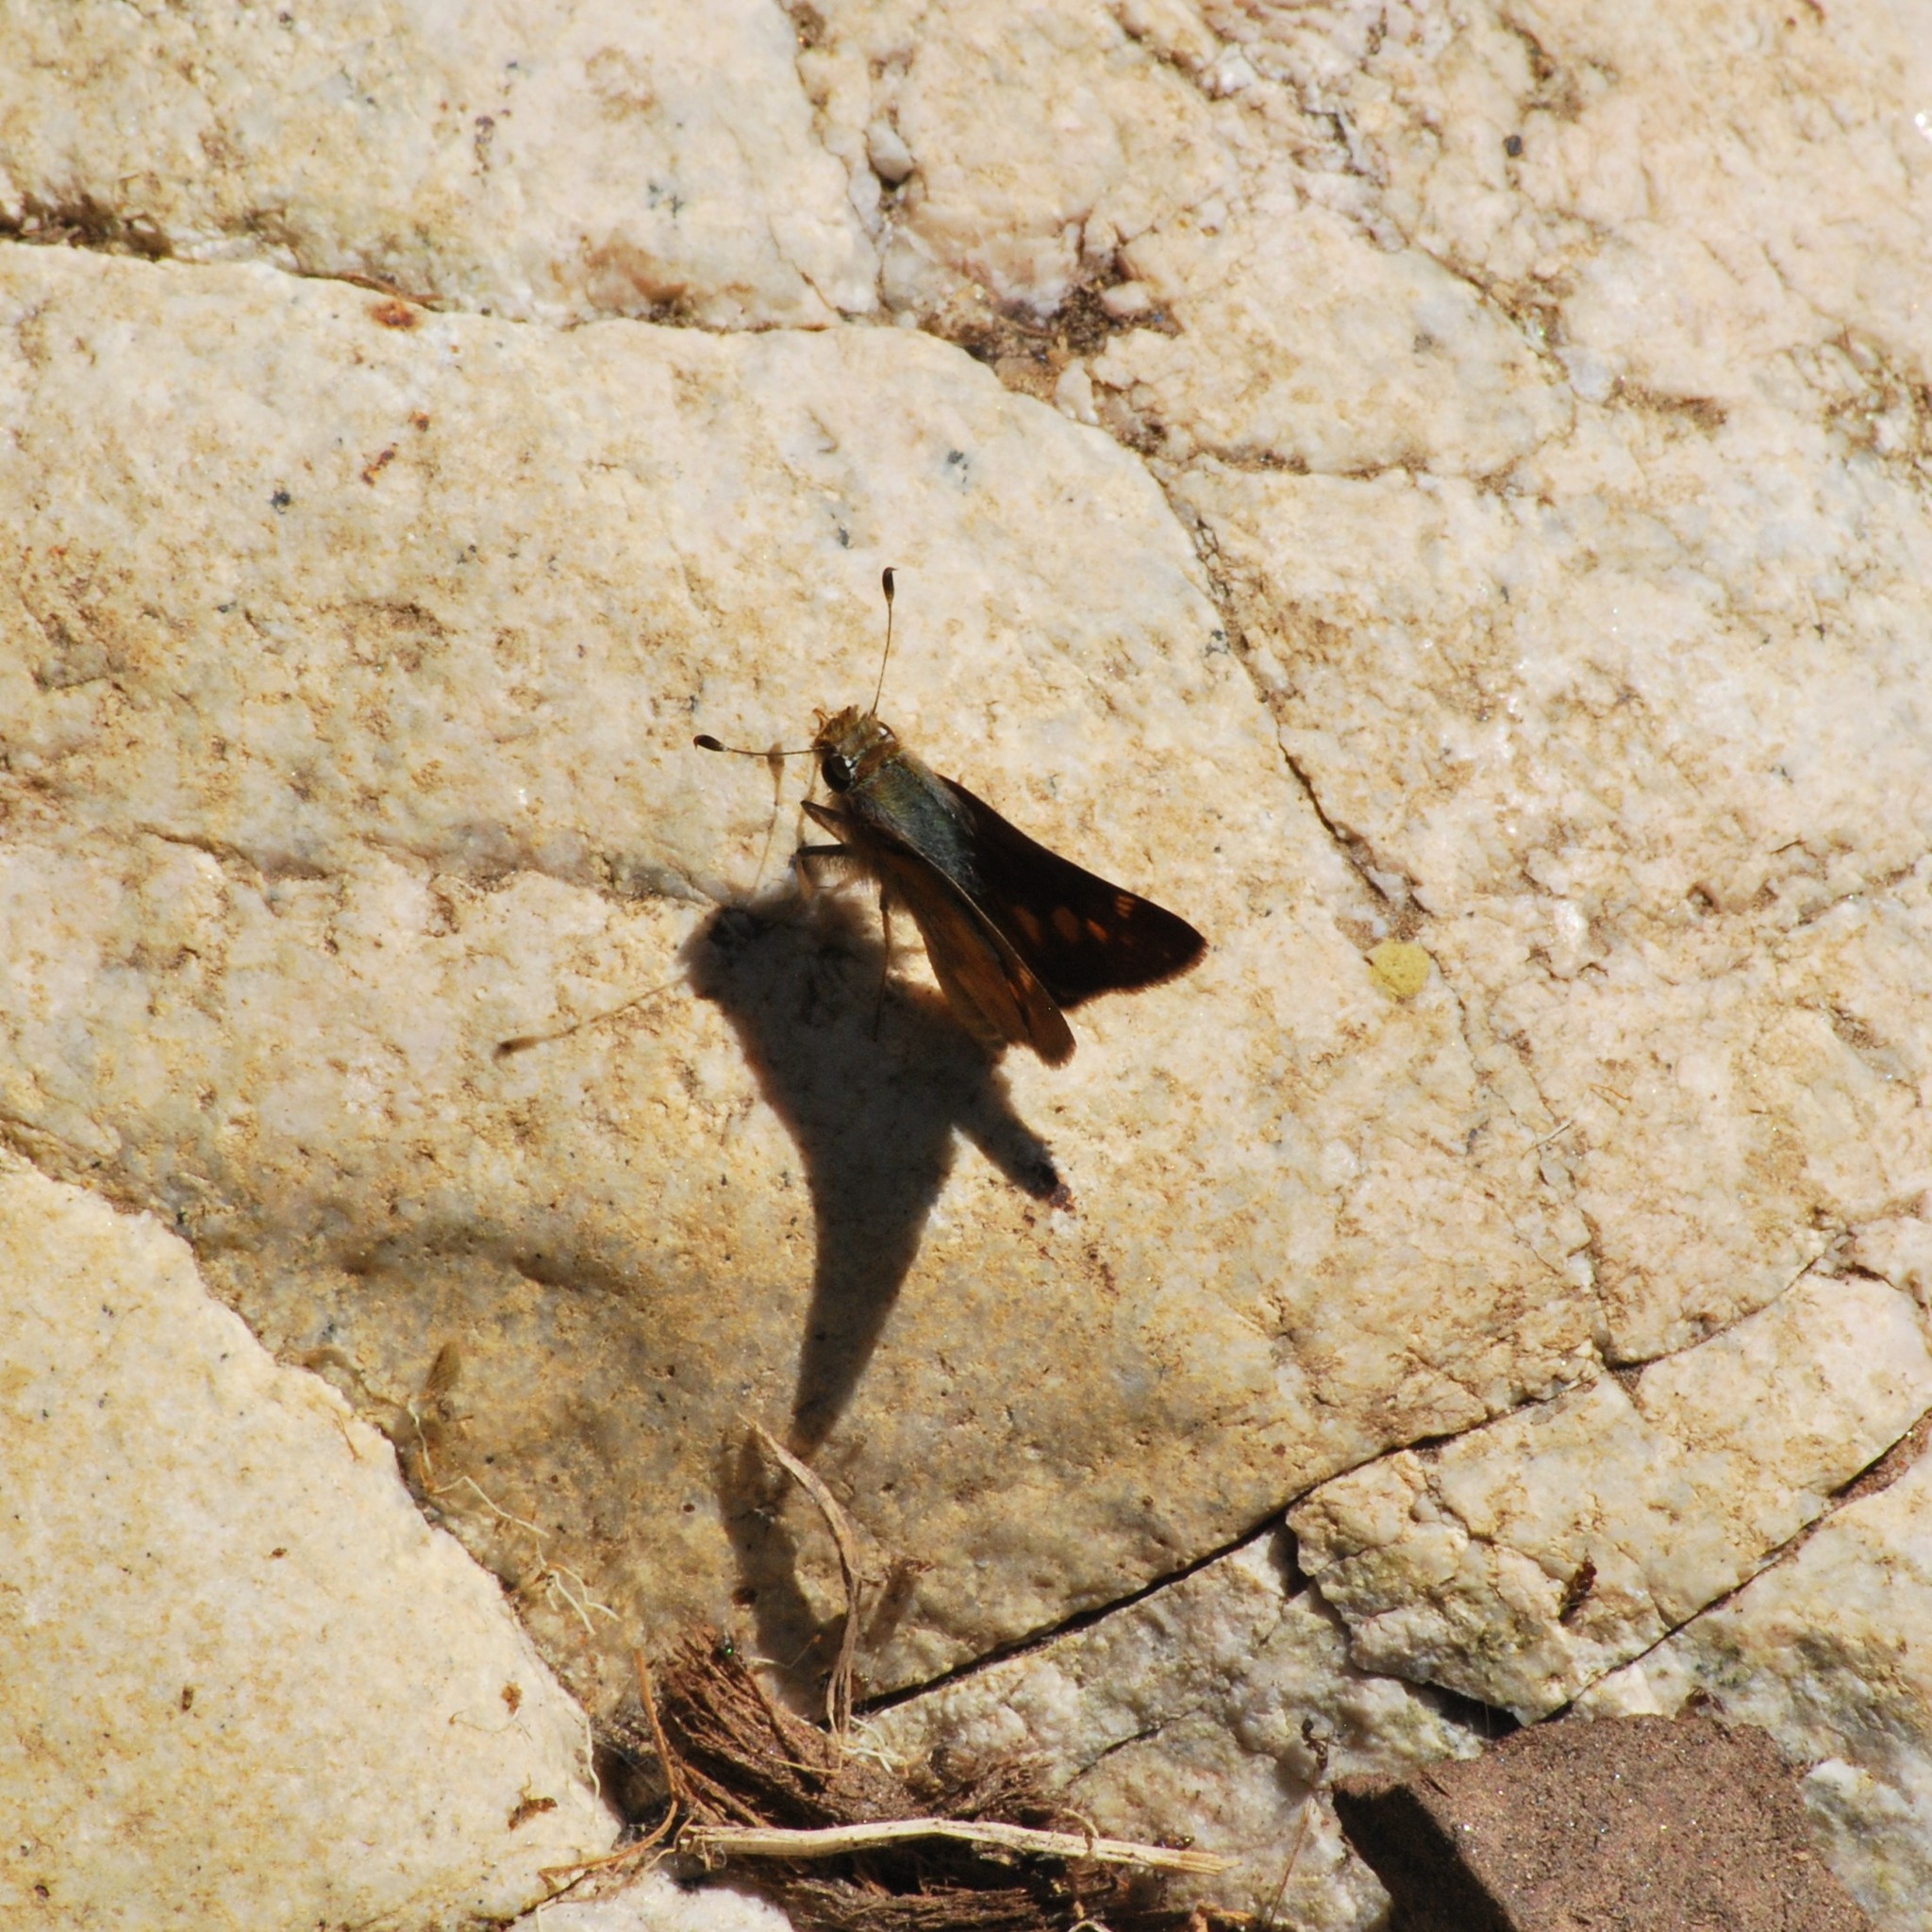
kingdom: Animalia
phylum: Arthropoda
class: Insecta
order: Lepidoptera
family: Hesperiidae
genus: Lon
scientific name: Lon melane
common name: Umber skipper
